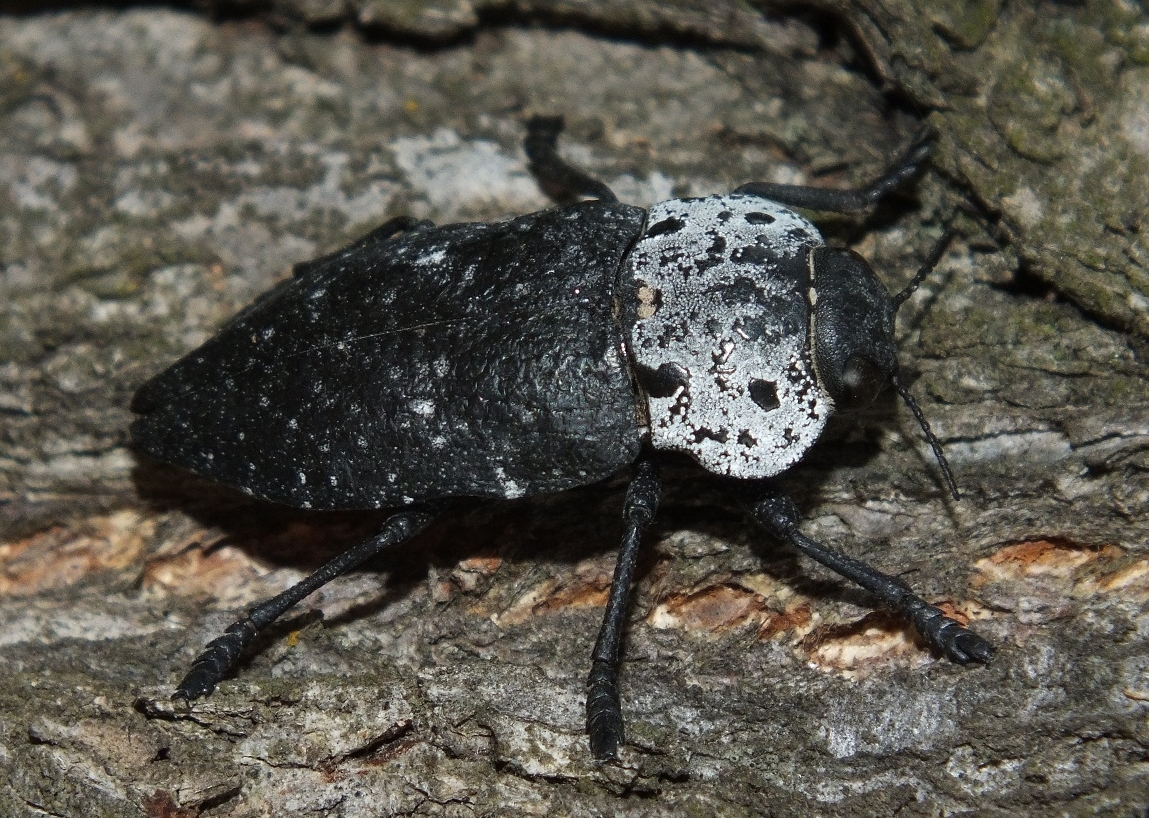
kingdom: Animalia
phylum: Arthropoda
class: Insecta
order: Coleoptera
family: Buprestidae
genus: Capnodis
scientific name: Capnodis tenebrionis
